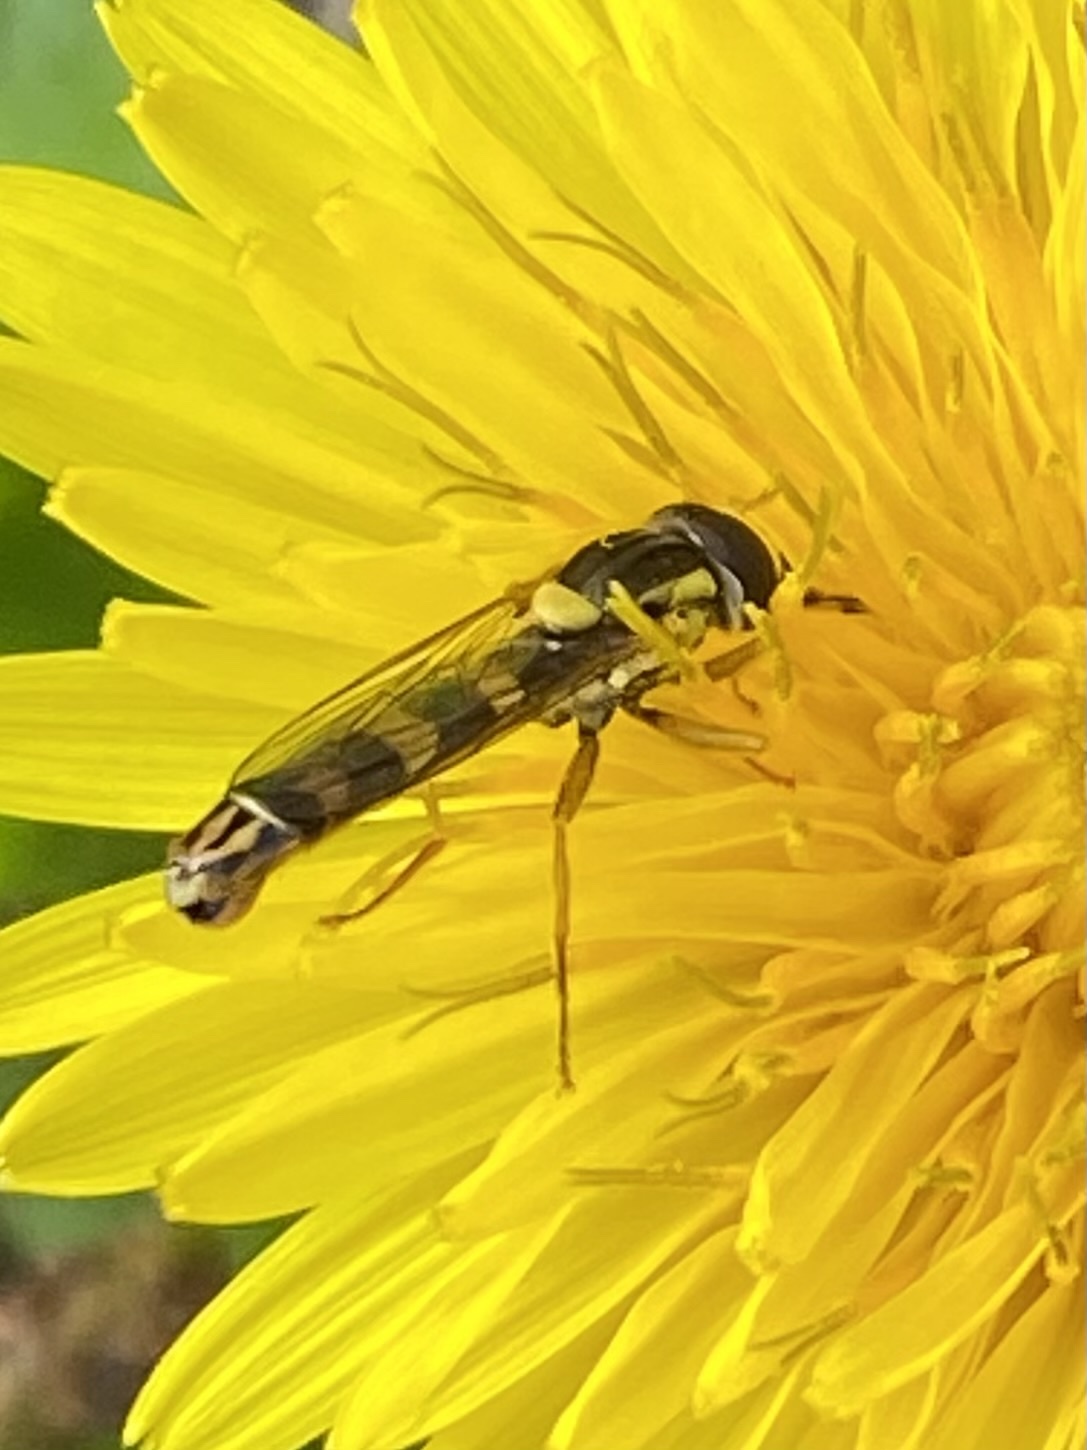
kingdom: Animalia
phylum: Arthropoda
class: Insecta
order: Diptera
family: Syrphidae
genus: Sphaerophoria
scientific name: Sphaerophoria scripta
